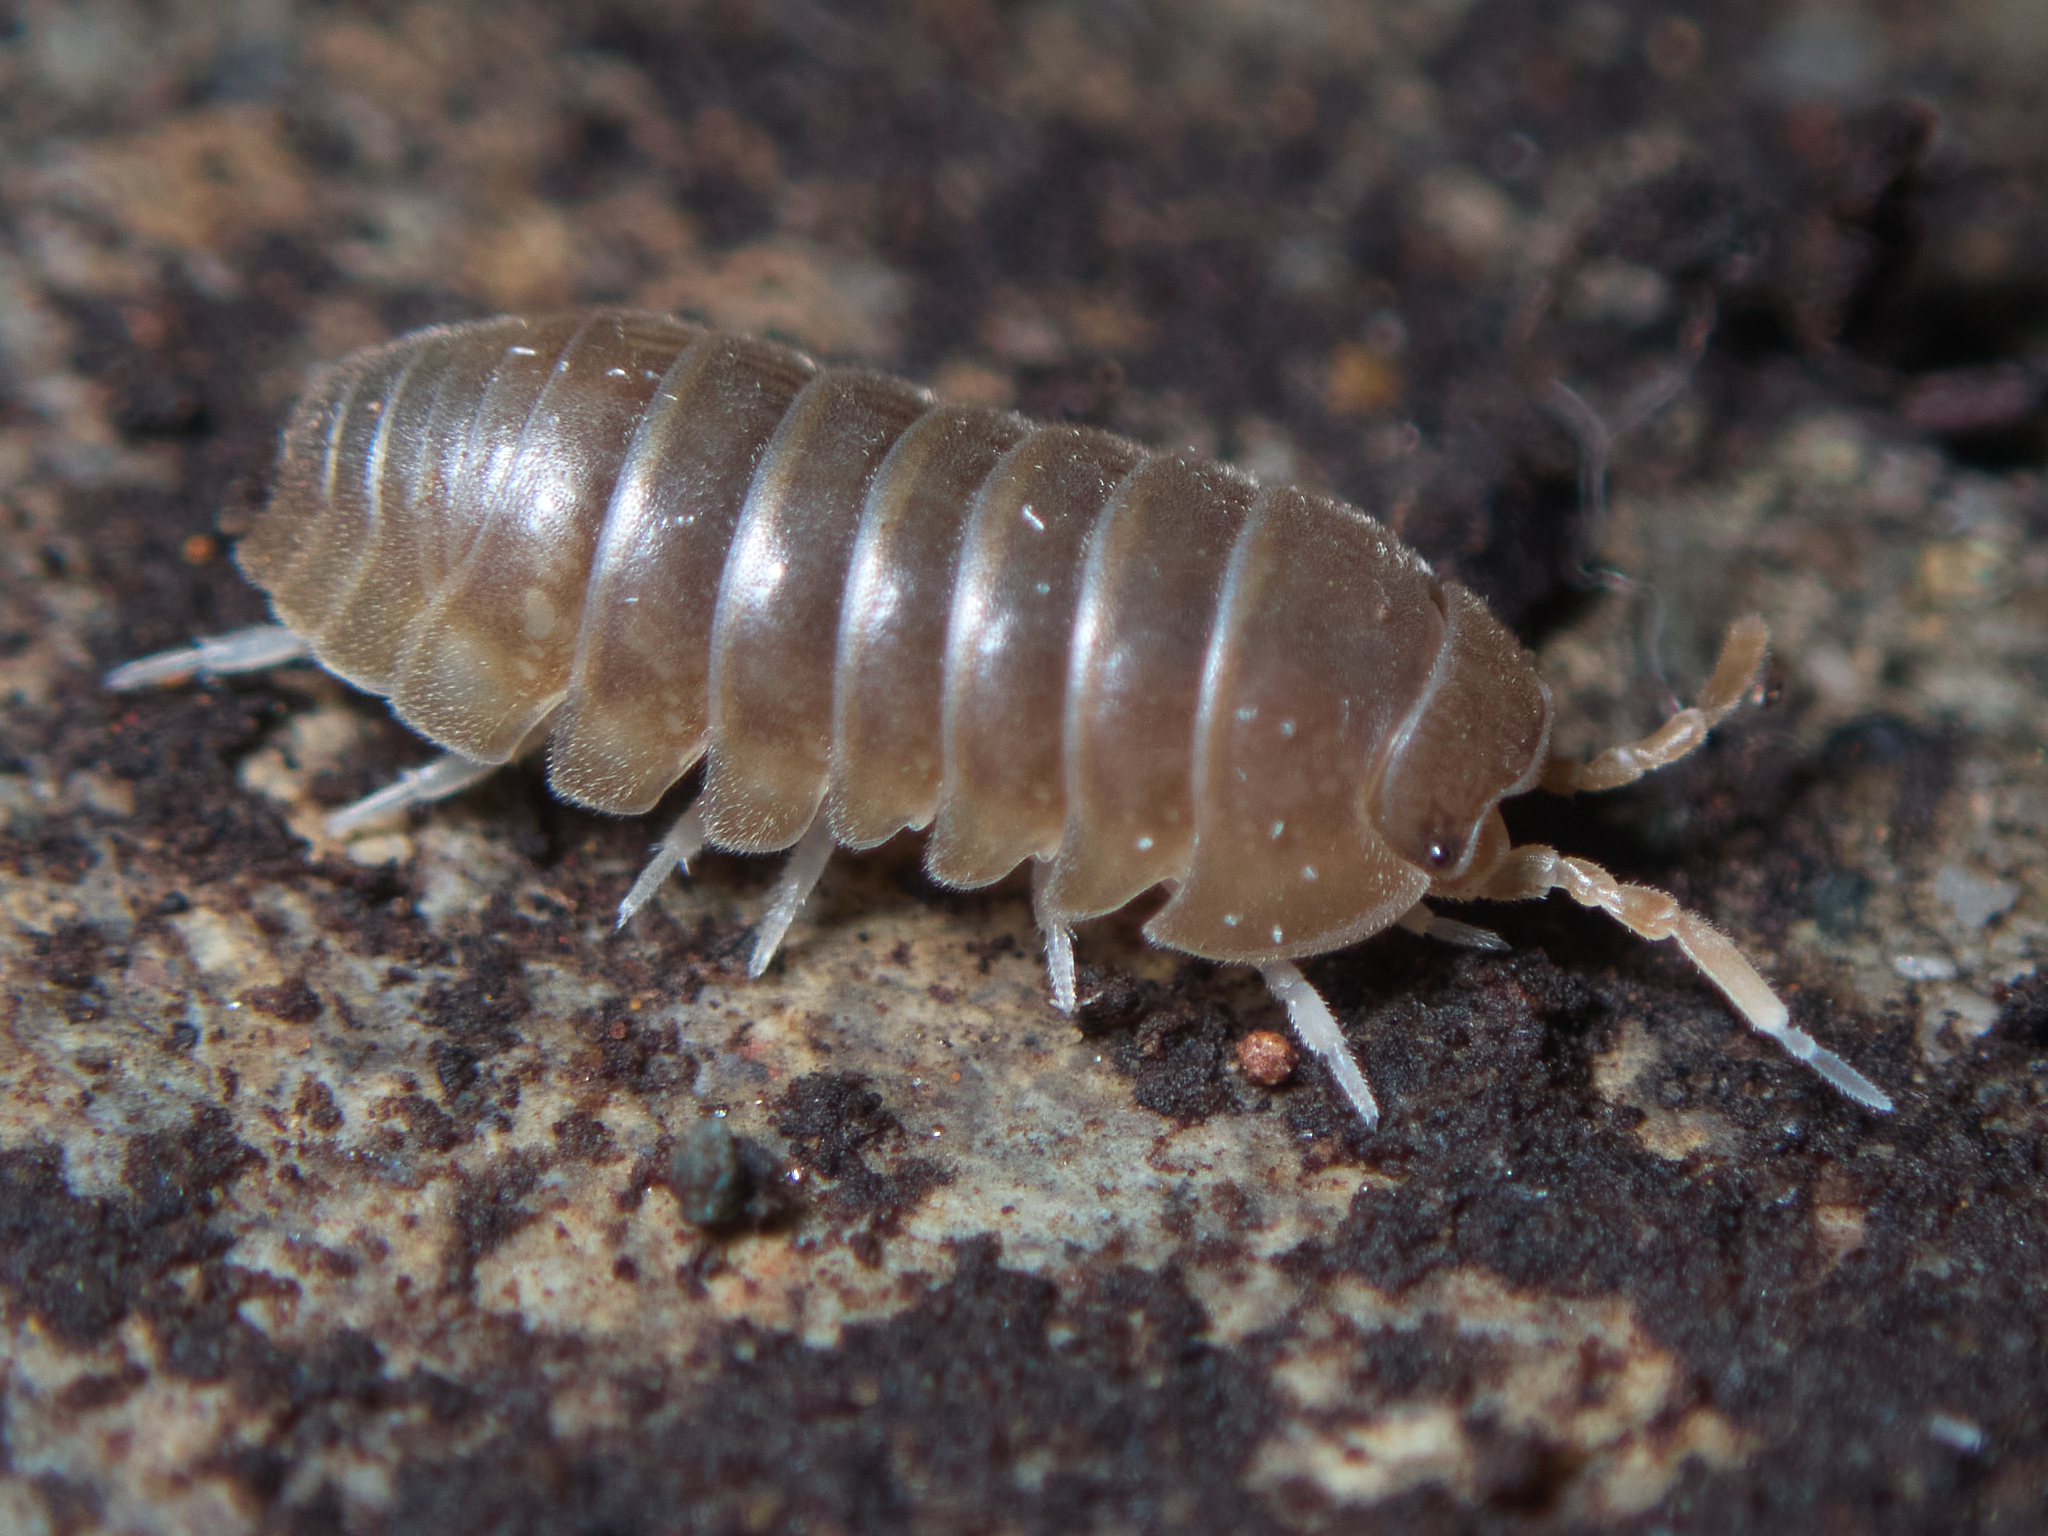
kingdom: Animalia
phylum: Arthropoda
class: Malacostraca
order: Isopoda
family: Armadillidiidae
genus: Eluma
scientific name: Eluma caelata
